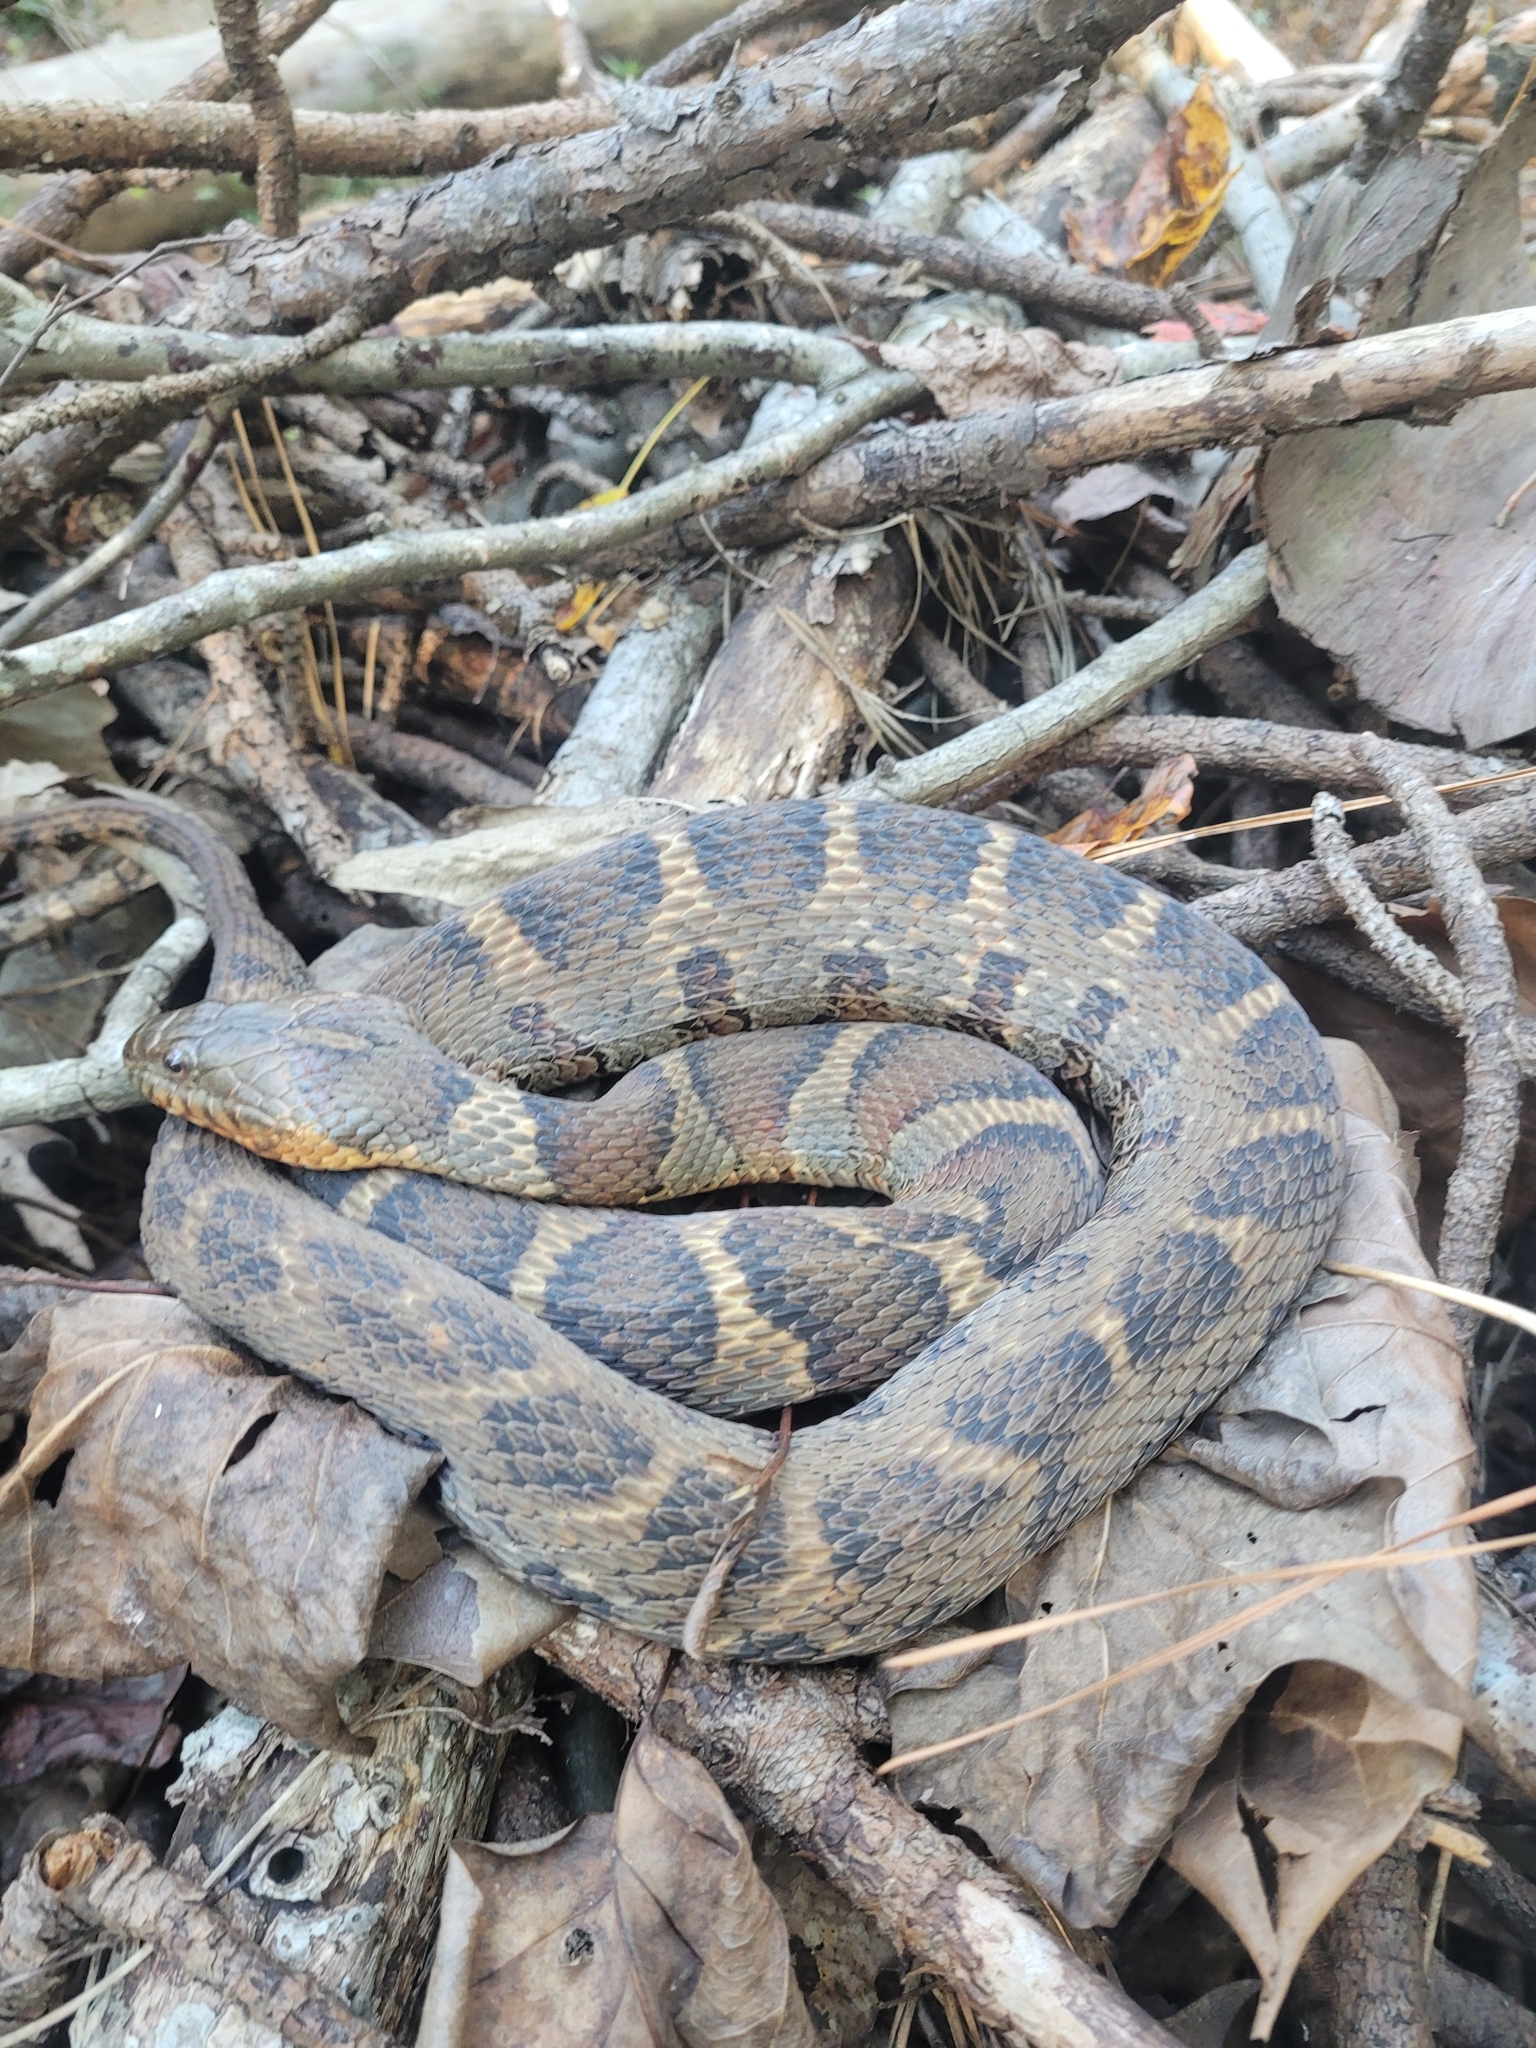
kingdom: Animalia
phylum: Chordata
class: Squamata
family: Colubridae
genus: Nerodia
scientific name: Nerodia sipedon
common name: Northern water snake
